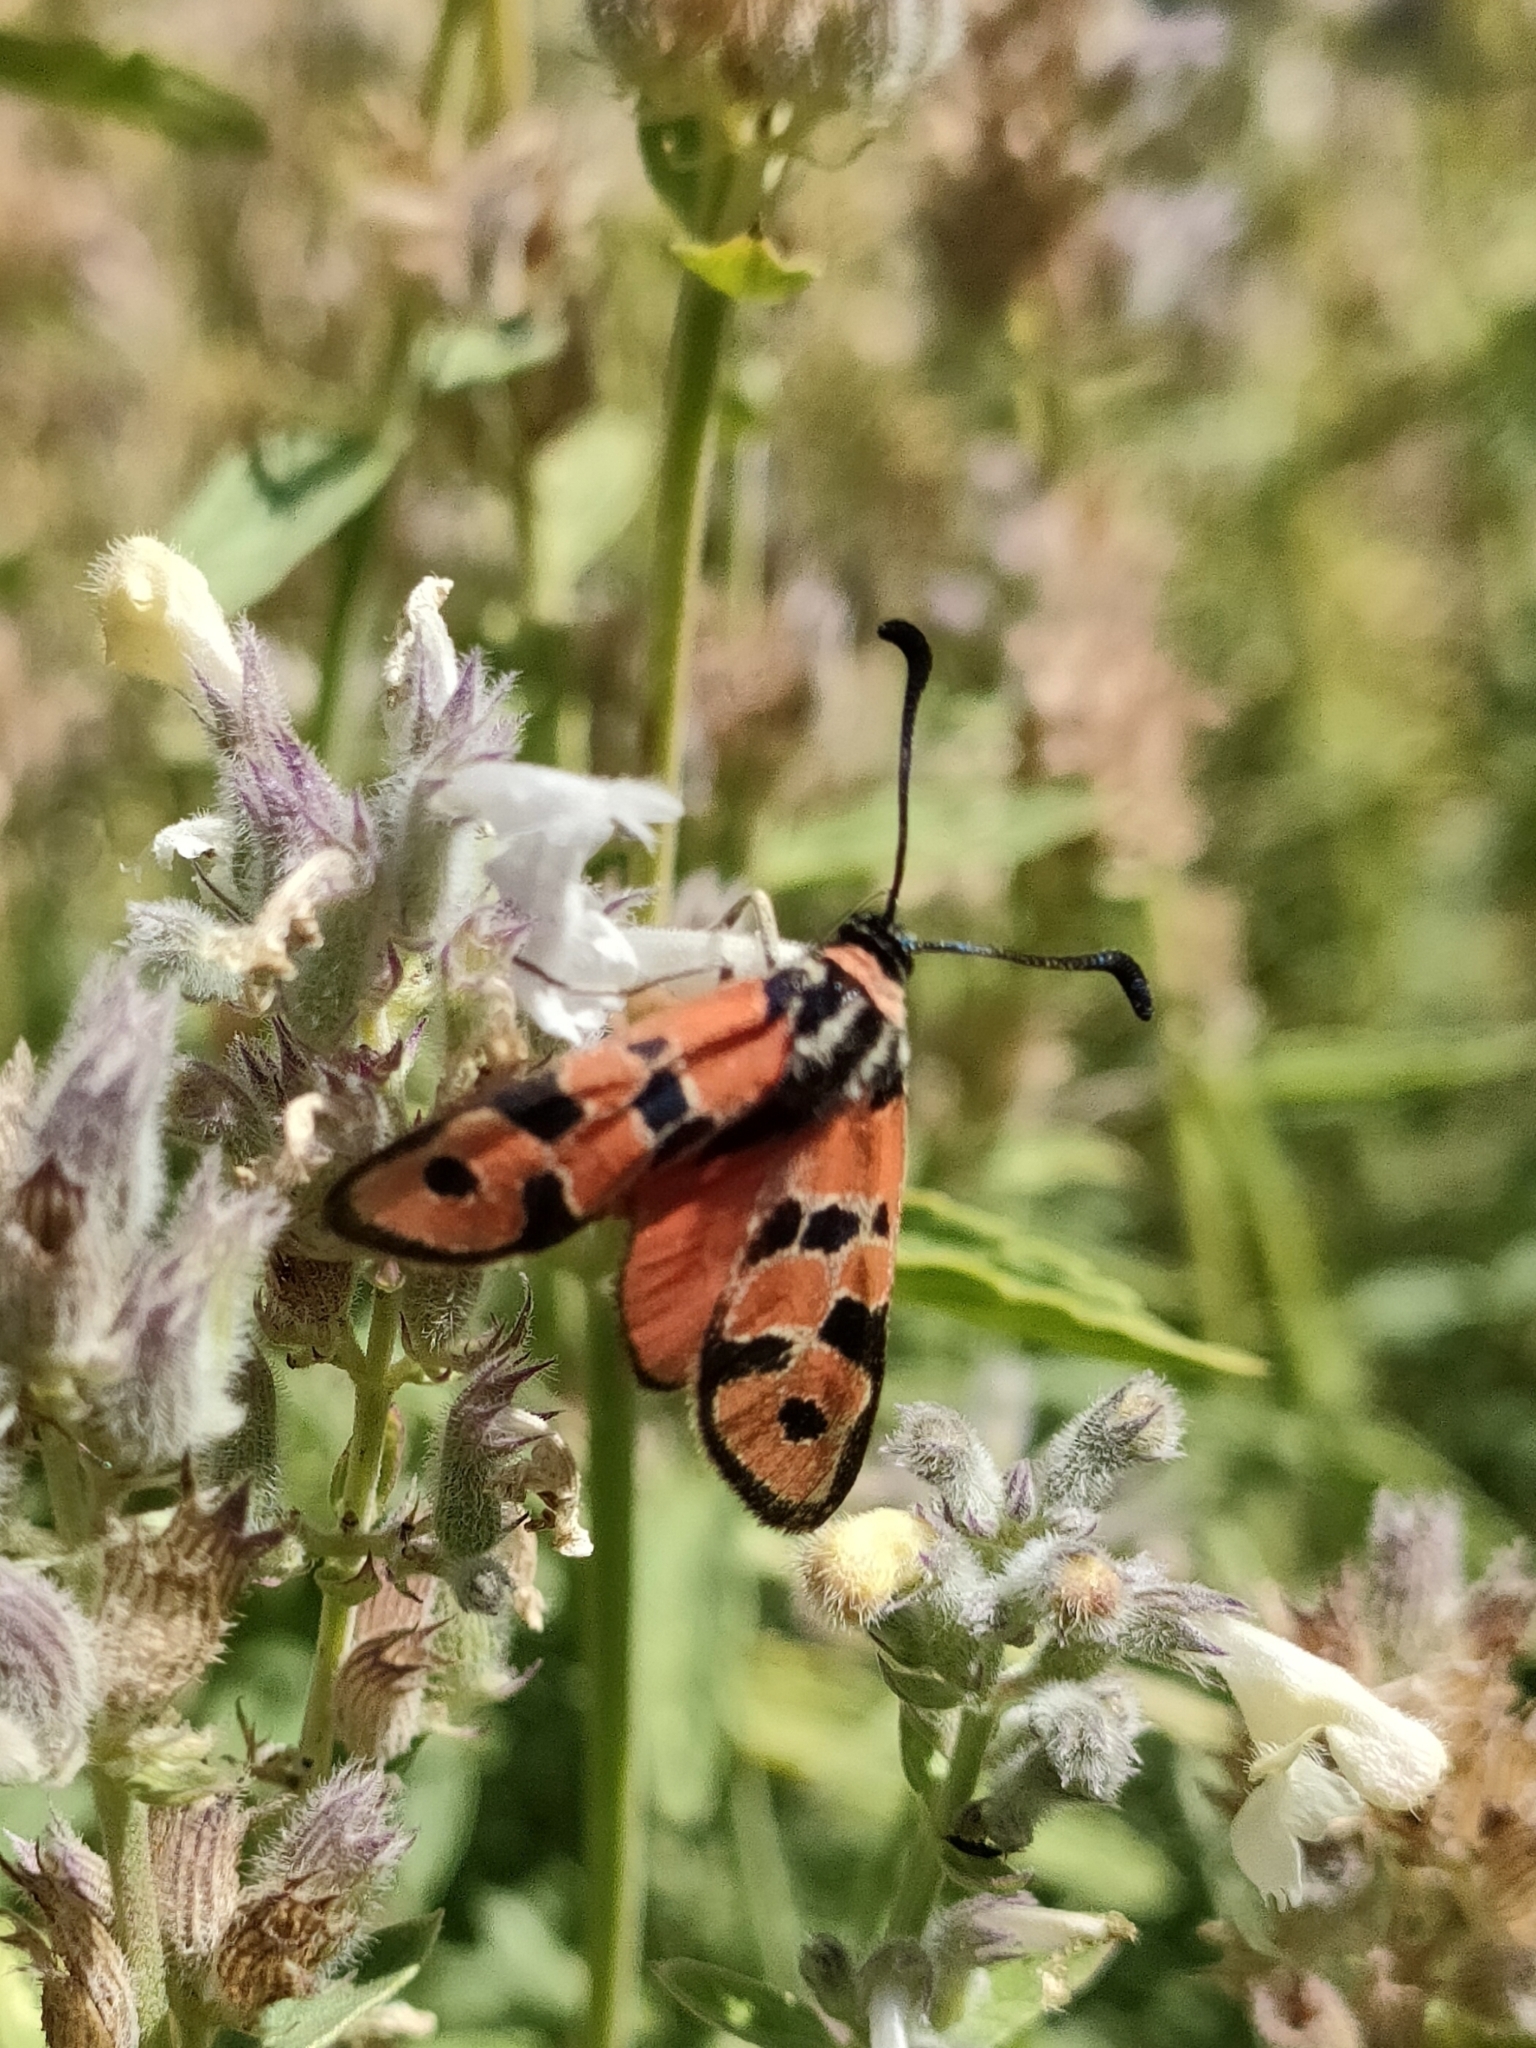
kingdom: Animalia
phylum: Arthropoda
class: Insecta
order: Lepidoptera
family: Zygaenidae
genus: Zygaena
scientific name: Zygaena fausta
